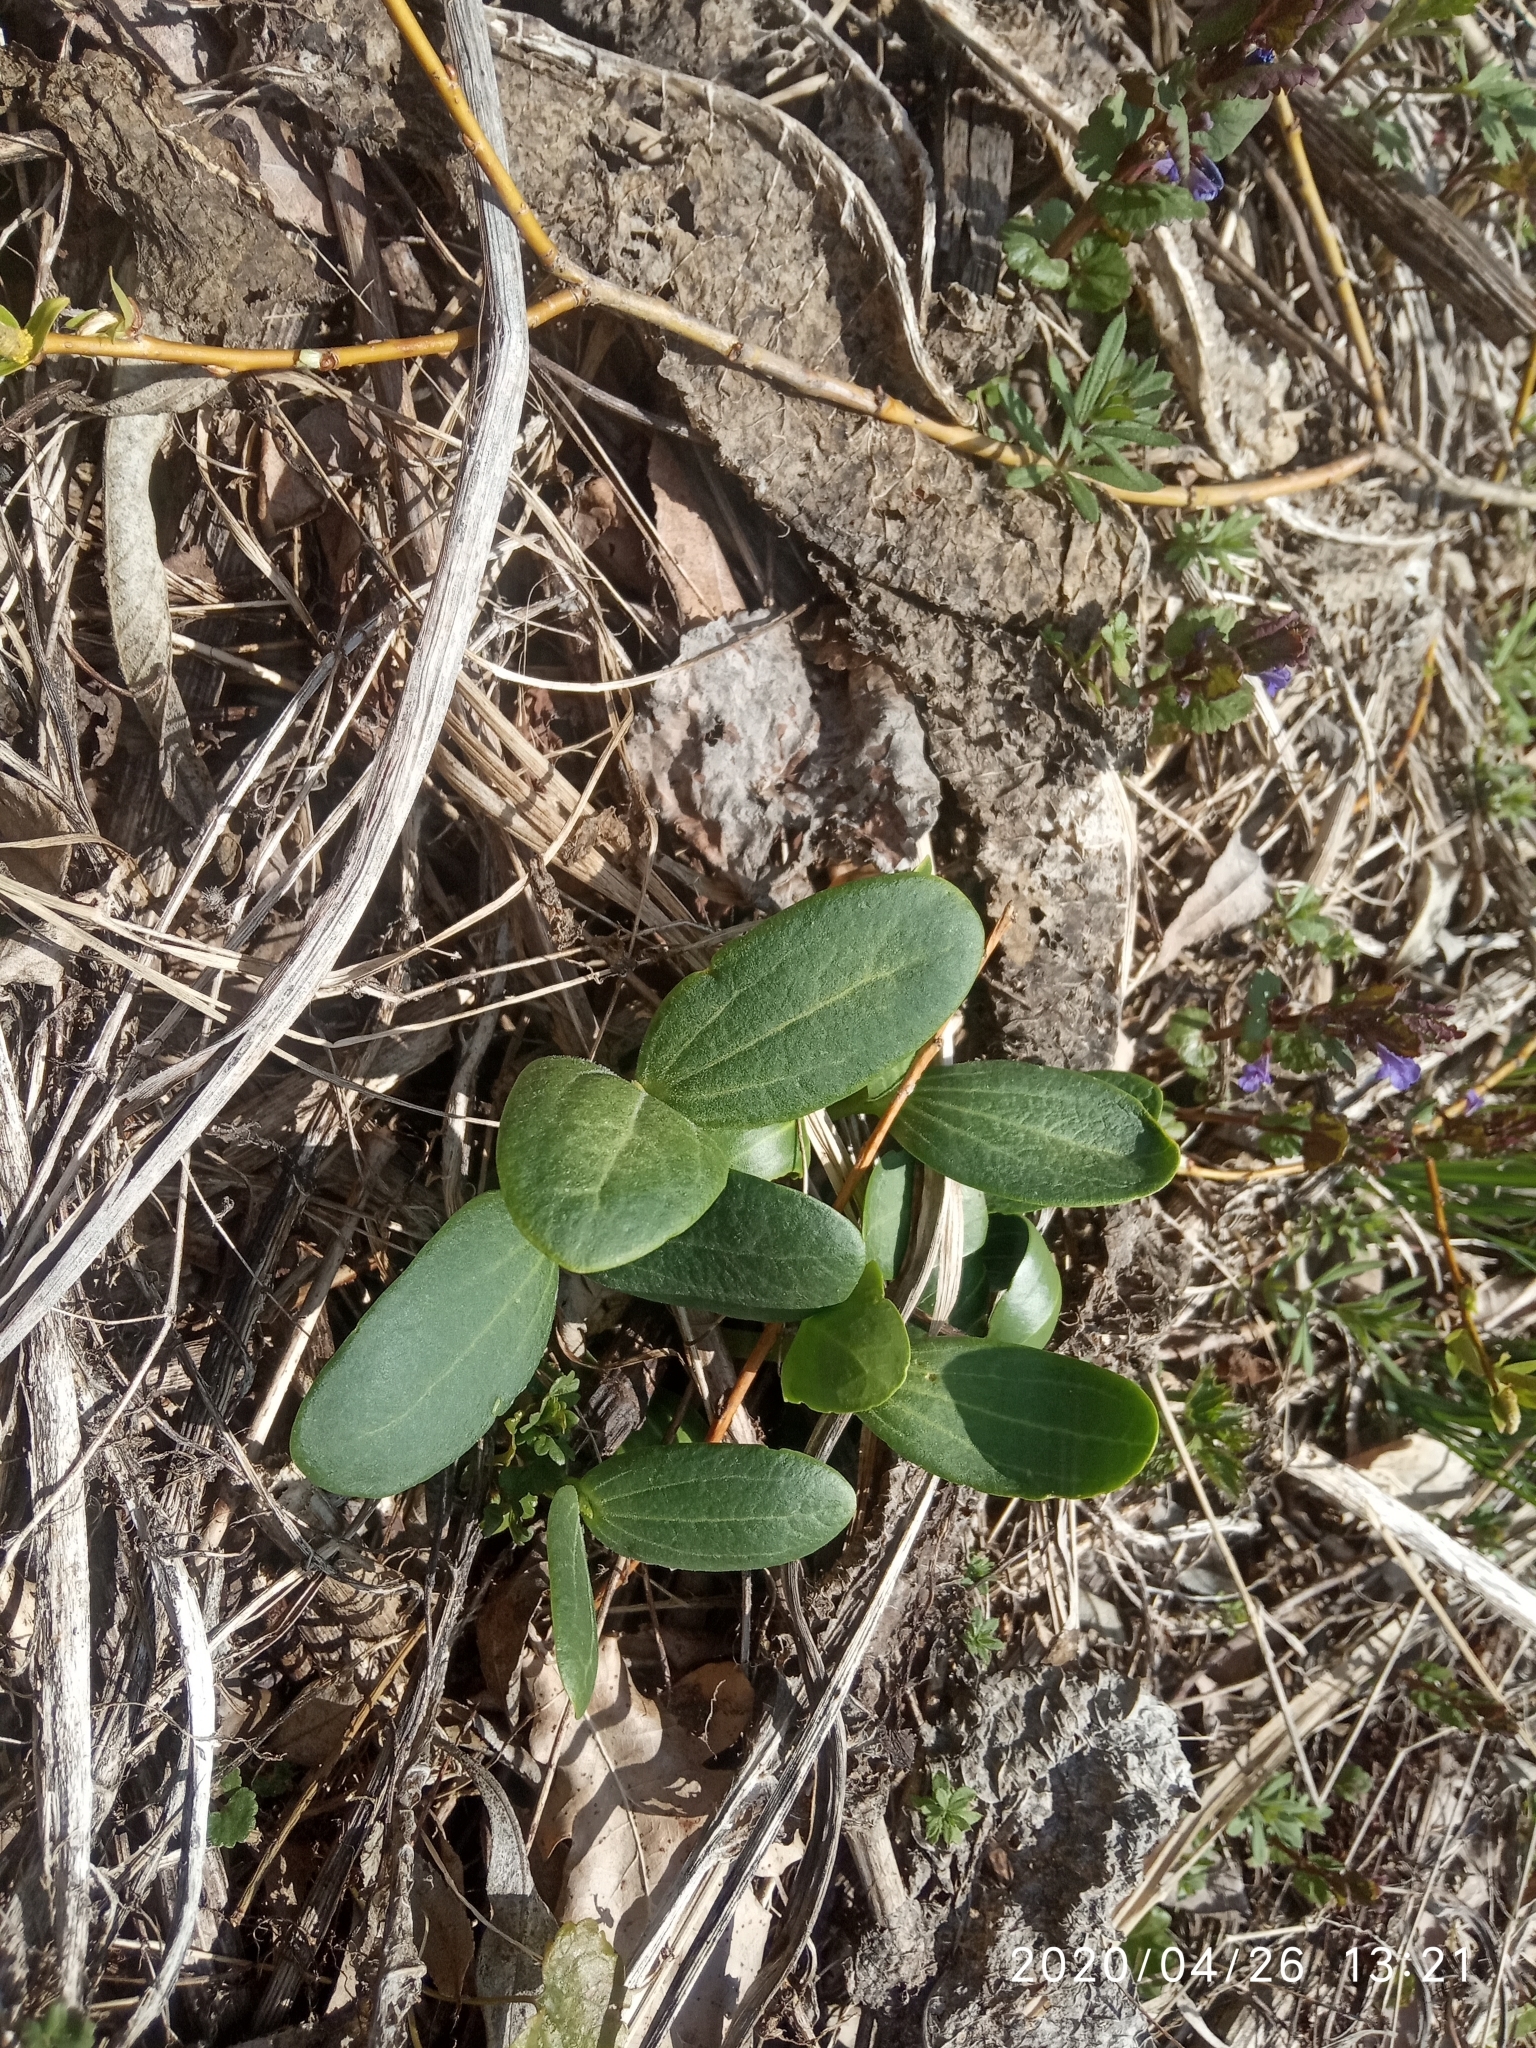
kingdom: Plantae
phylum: Tracheophyta
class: Magnoliopsida
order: Cucurbitales
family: Cucurbitaceae
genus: Echinocystis
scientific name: Echinocystis lobata
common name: Wild cucumber
